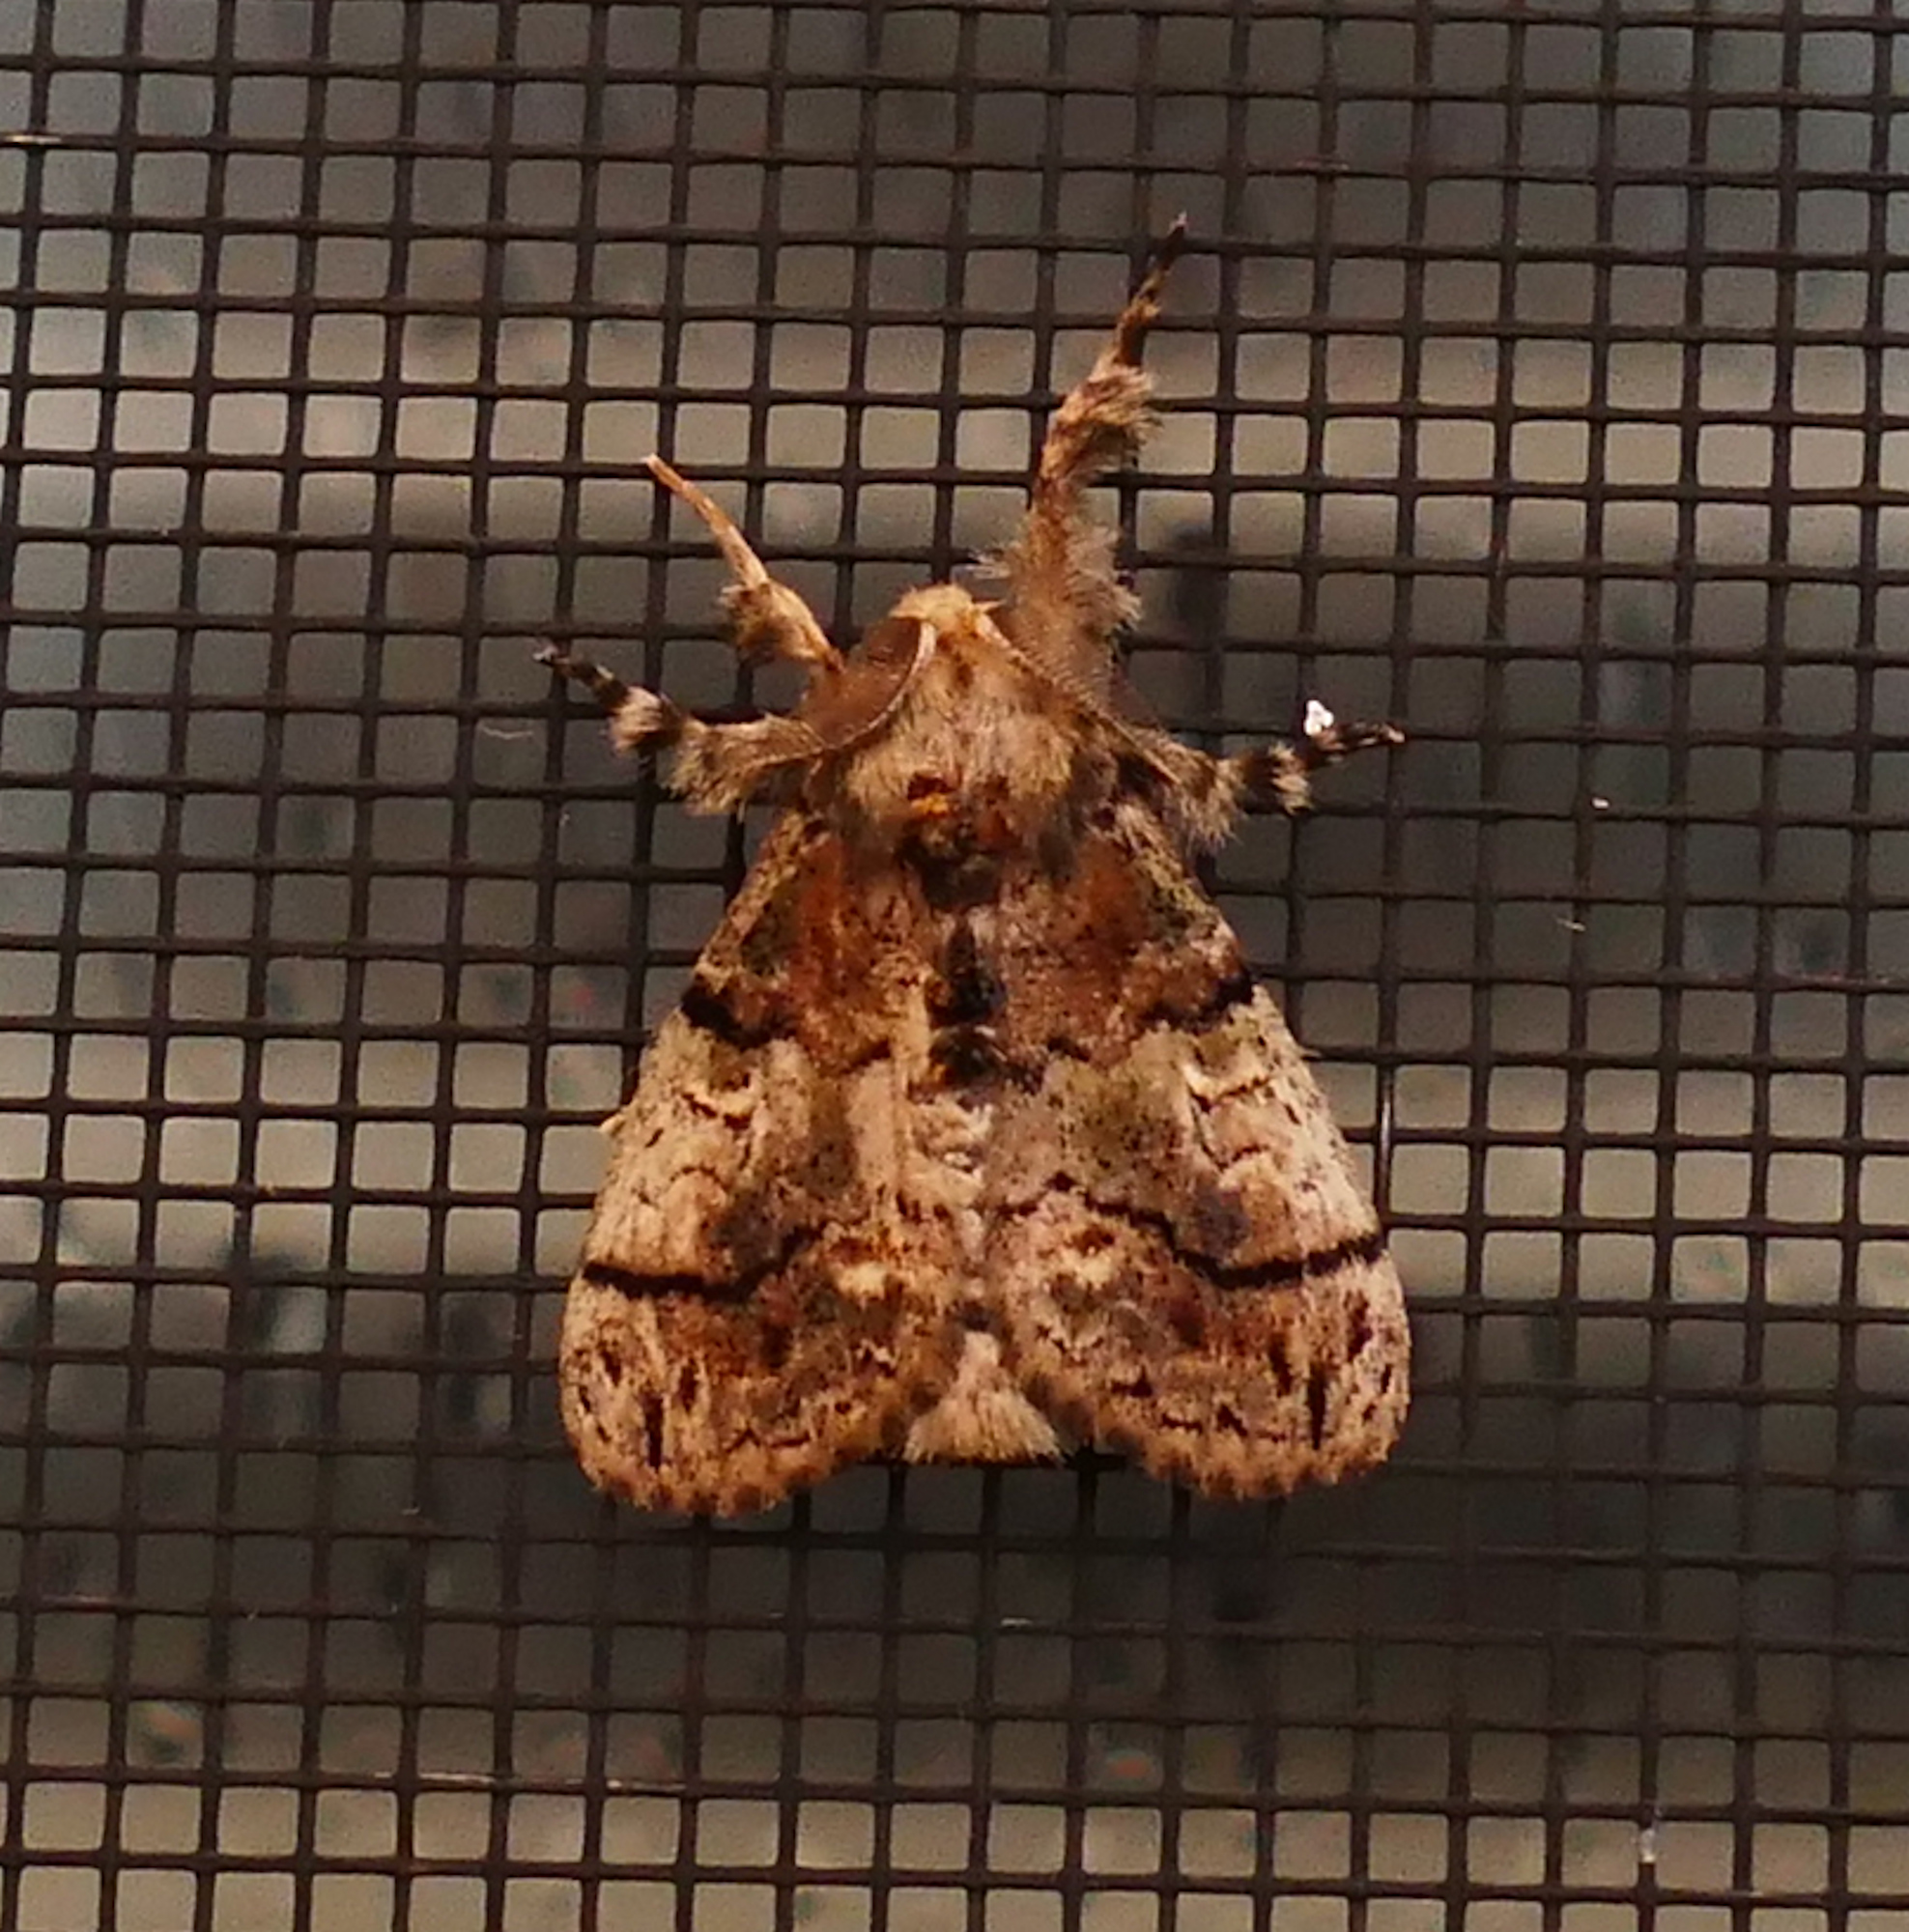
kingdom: Animalia
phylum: Arthropoda
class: Insecta
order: Lepidoptera
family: Erebidae
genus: Dasychira
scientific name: Dasychira meridionalis
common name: Southern tussock moth
